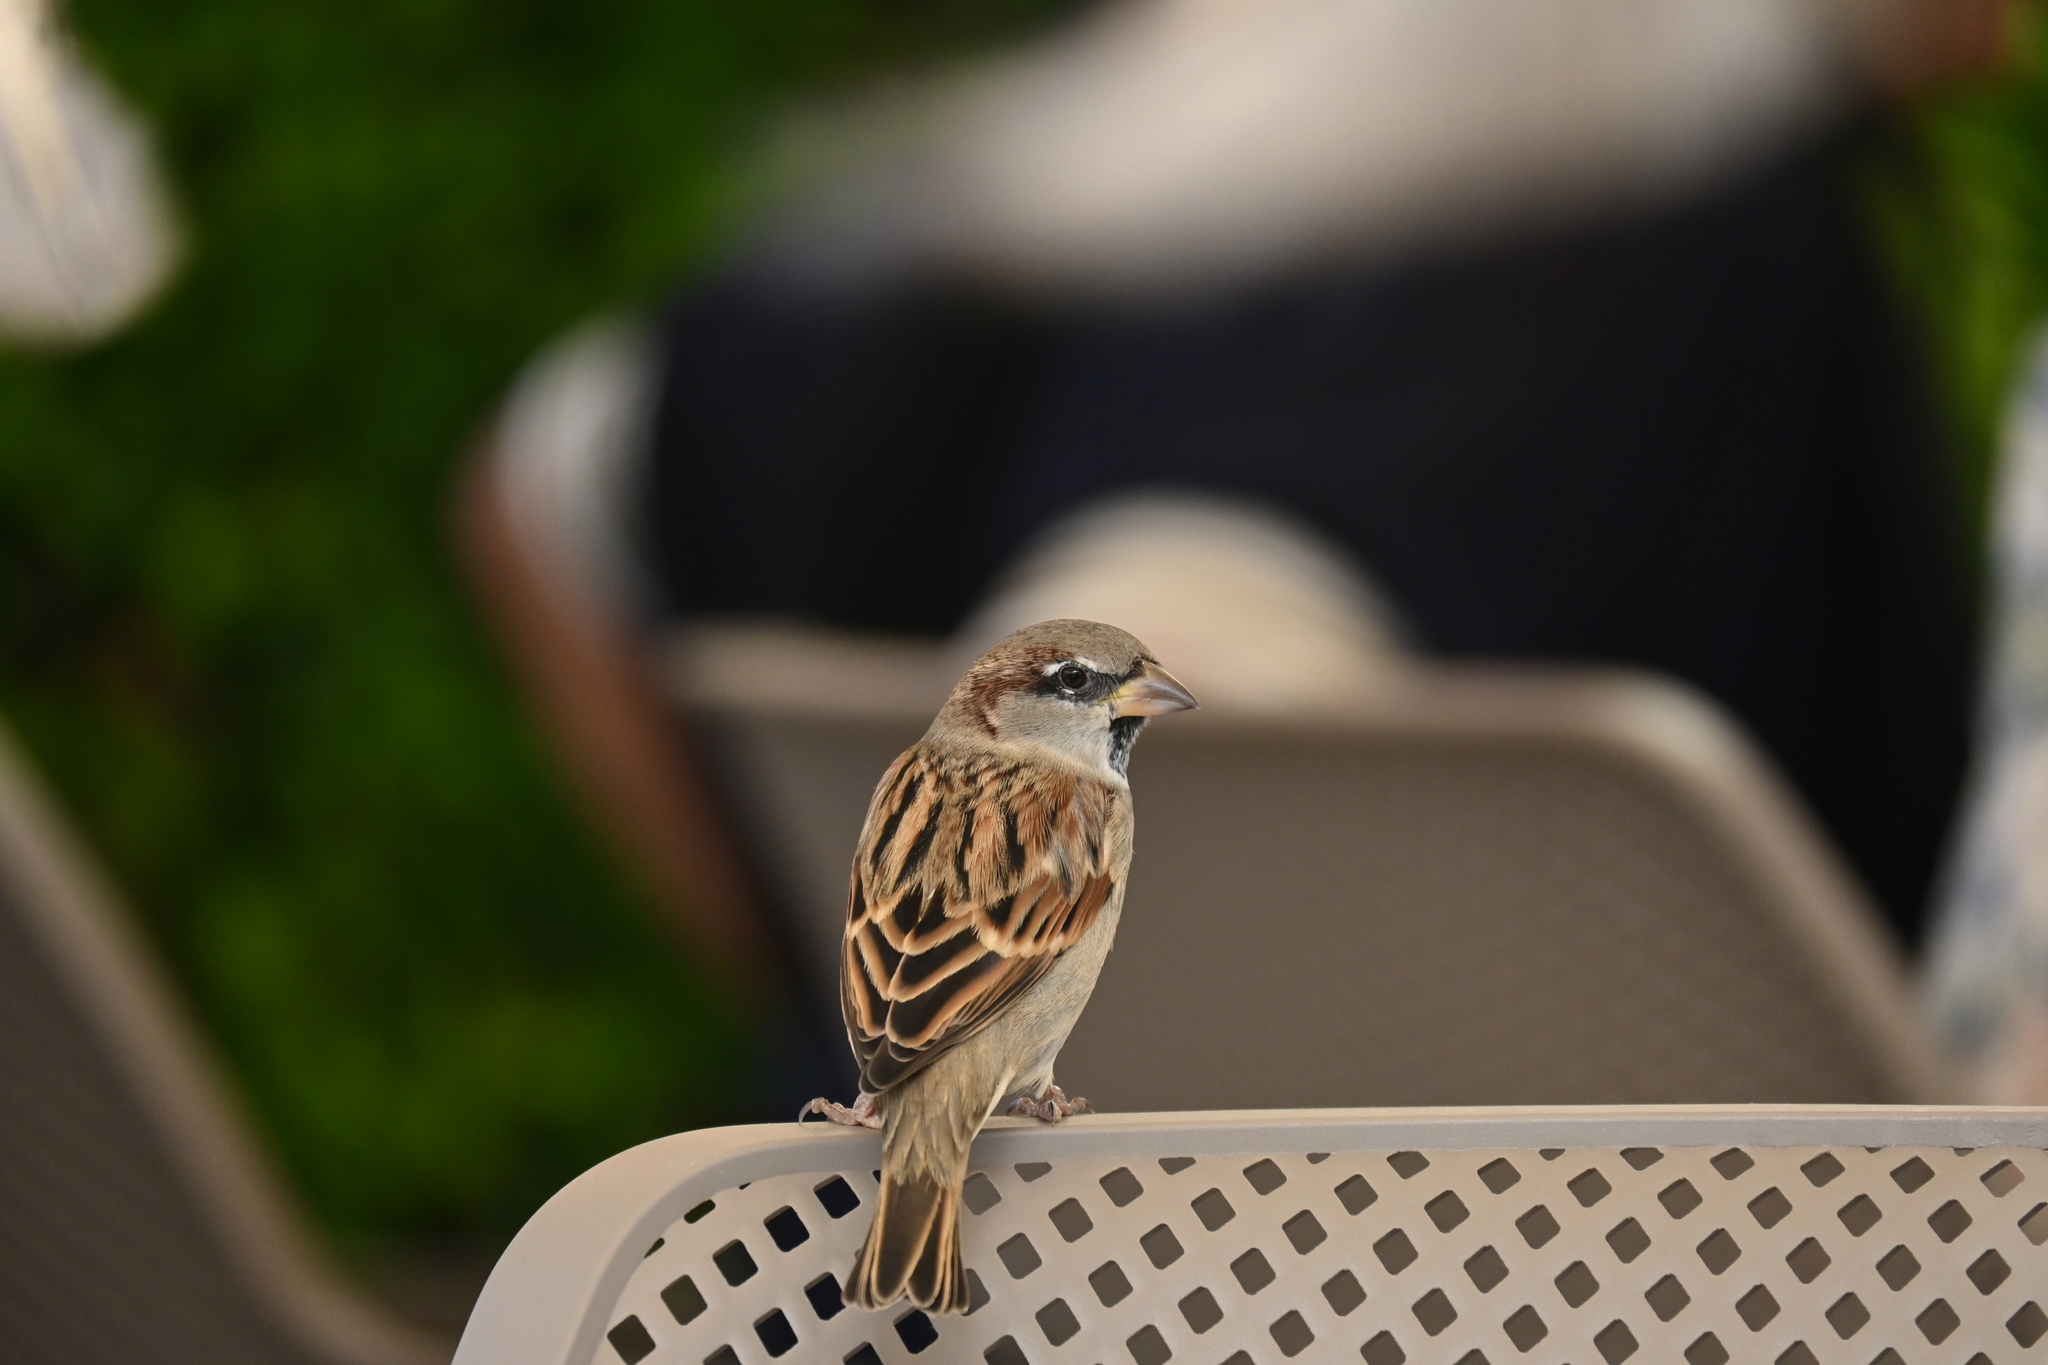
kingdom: Animalia
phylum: Chordata
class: Aves
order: Passeriformes
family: Passeridae
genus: Passer
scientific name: Passer domesticus
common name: House sparrow
